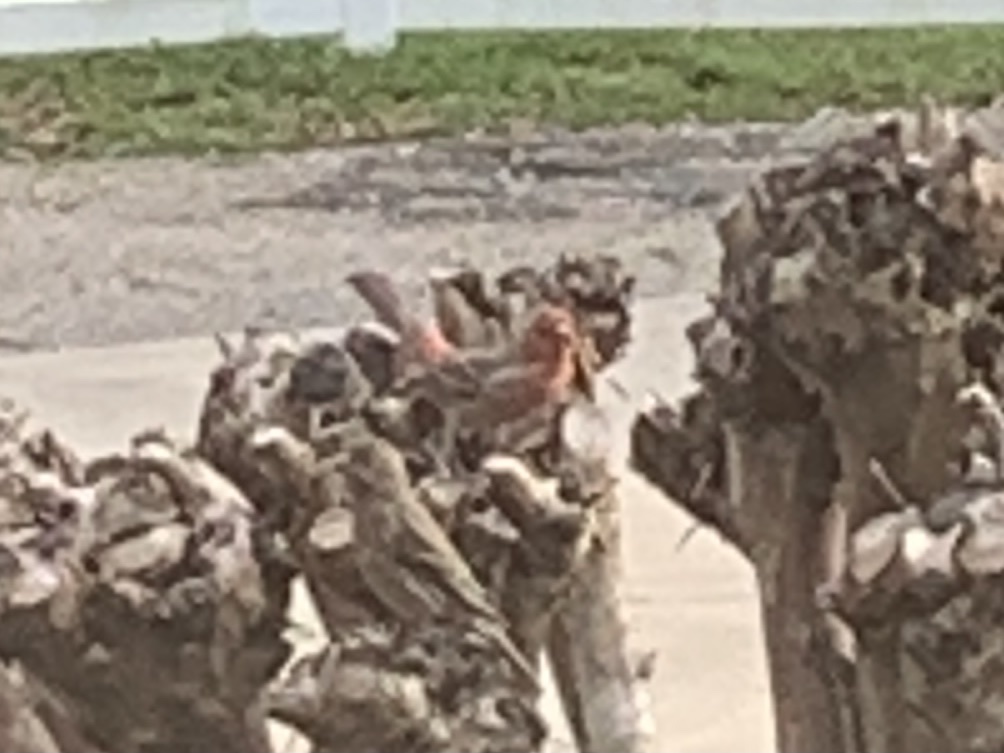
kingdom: Animalia
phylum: Chordata
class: Aves
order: Passeriformes
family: Fringillidae
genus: Haemorhous
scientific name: Haemorhous mexicanus
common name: House finch
